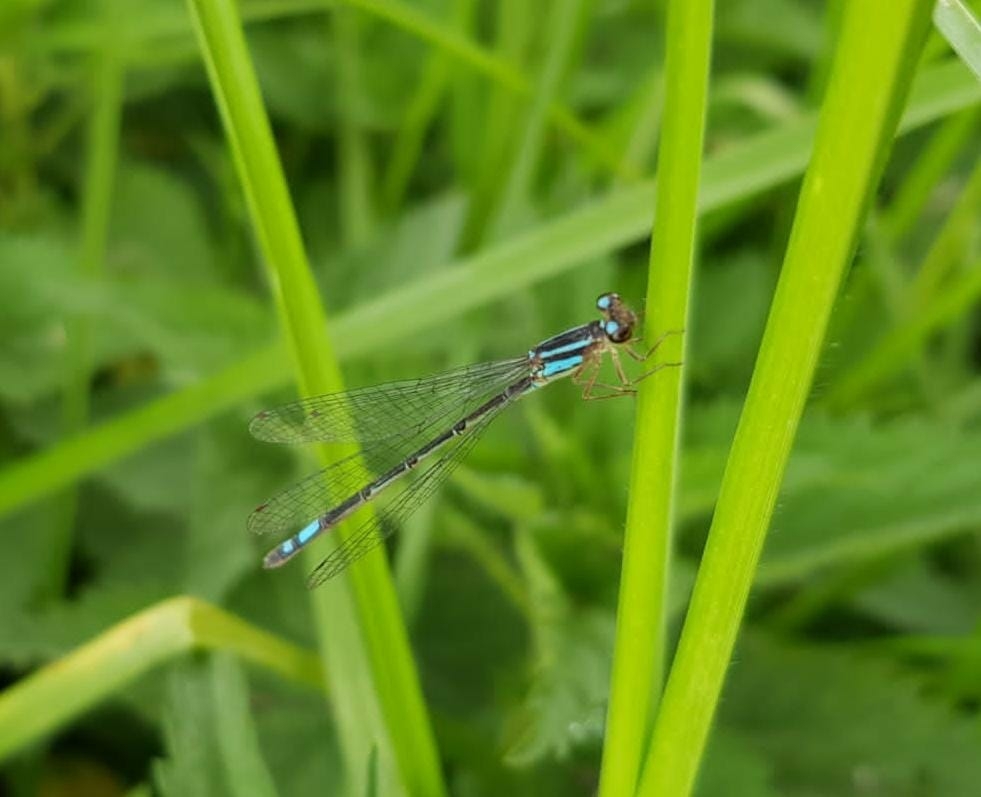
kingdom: Animalia
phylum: Arthropoda
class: Insecta
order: Odonata
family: Coenagrionidae
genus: Mesamphiagrion
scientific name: Mesamphiagrion laterale
